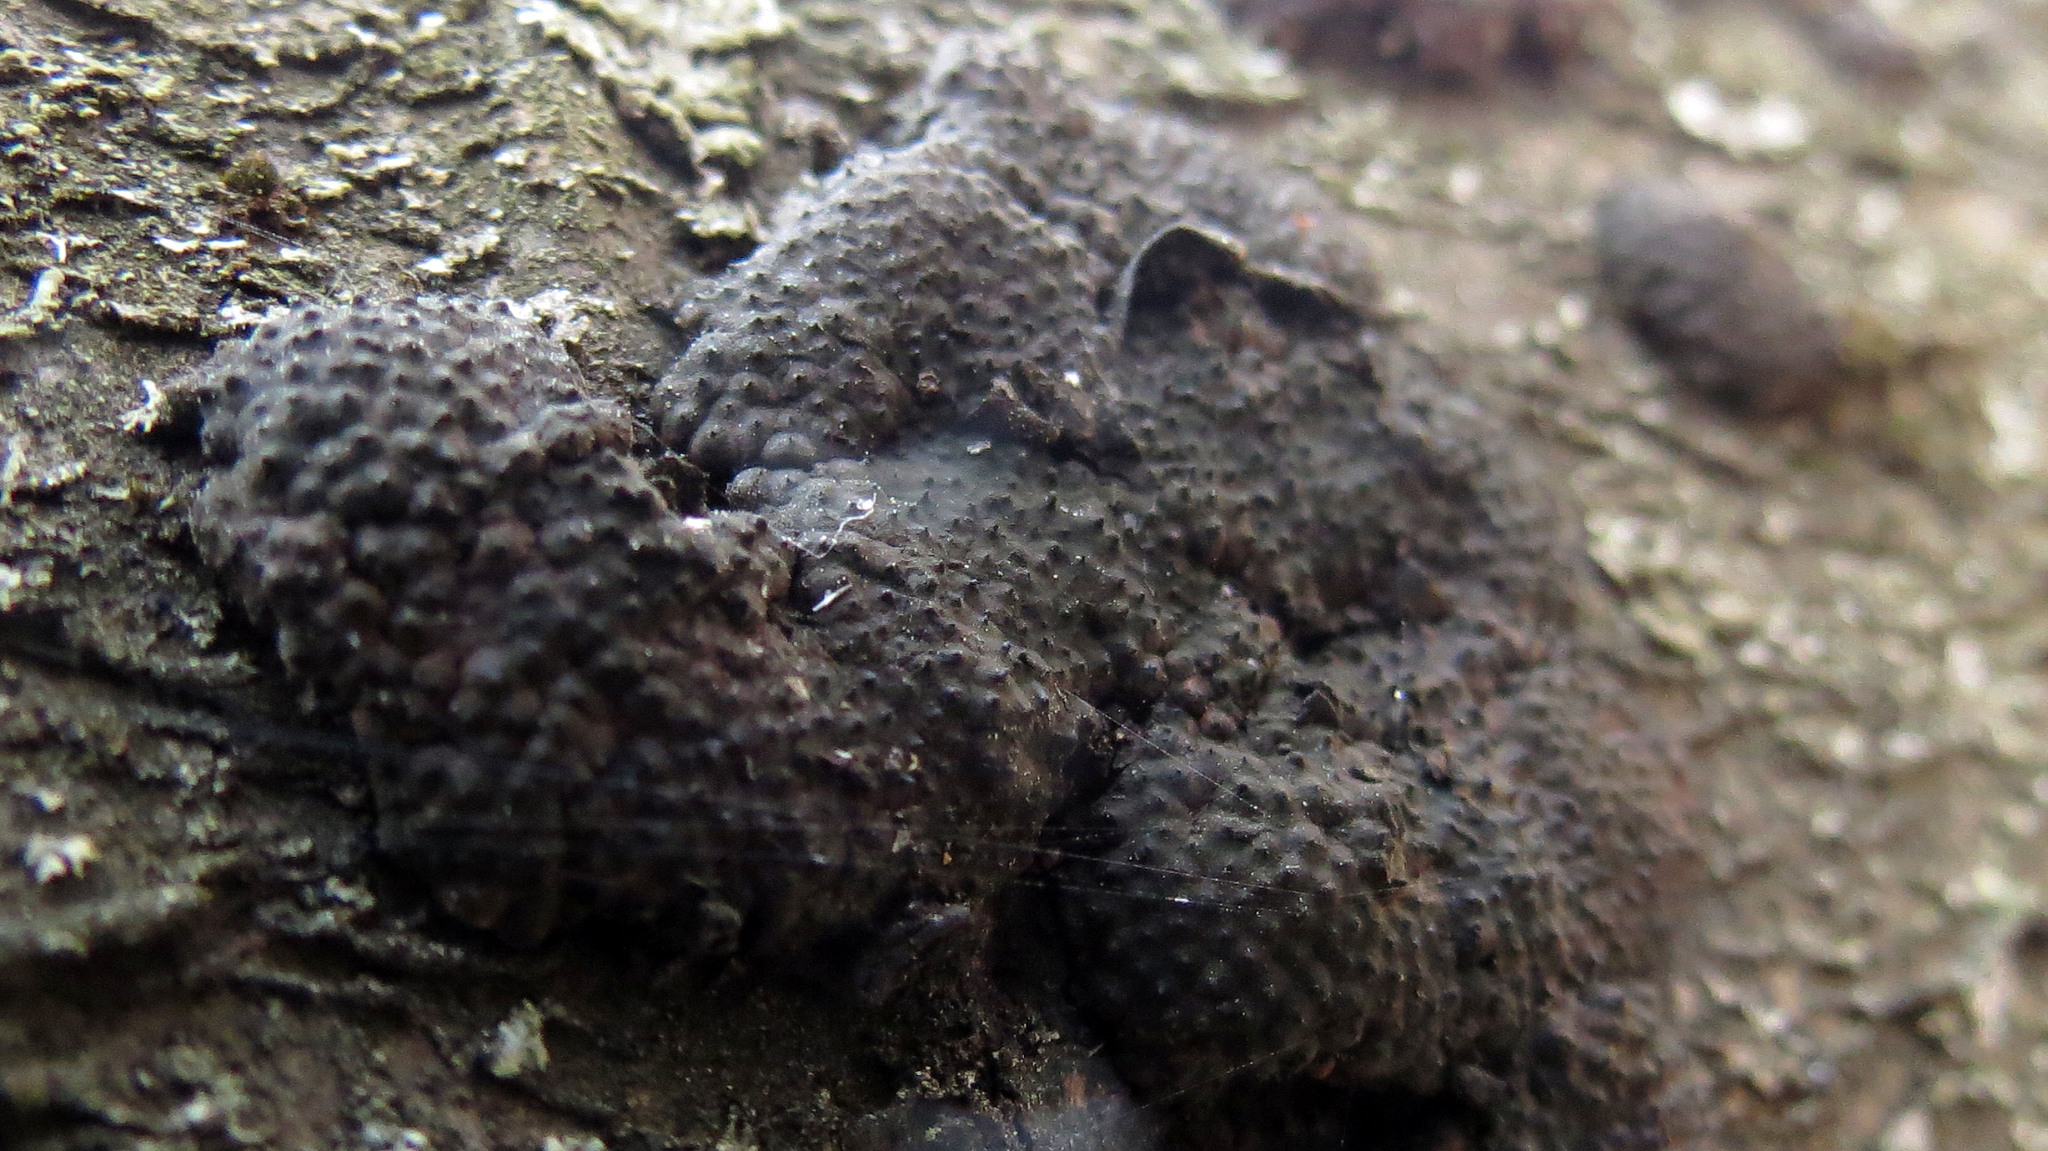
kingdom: Fungi
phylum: Ascomycota
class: Sordariomycetes
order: Xylariales
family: Hypoxylaceae
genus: Jackrogersella
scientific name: Jackrogersella multiformis
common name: Birch woodwart
